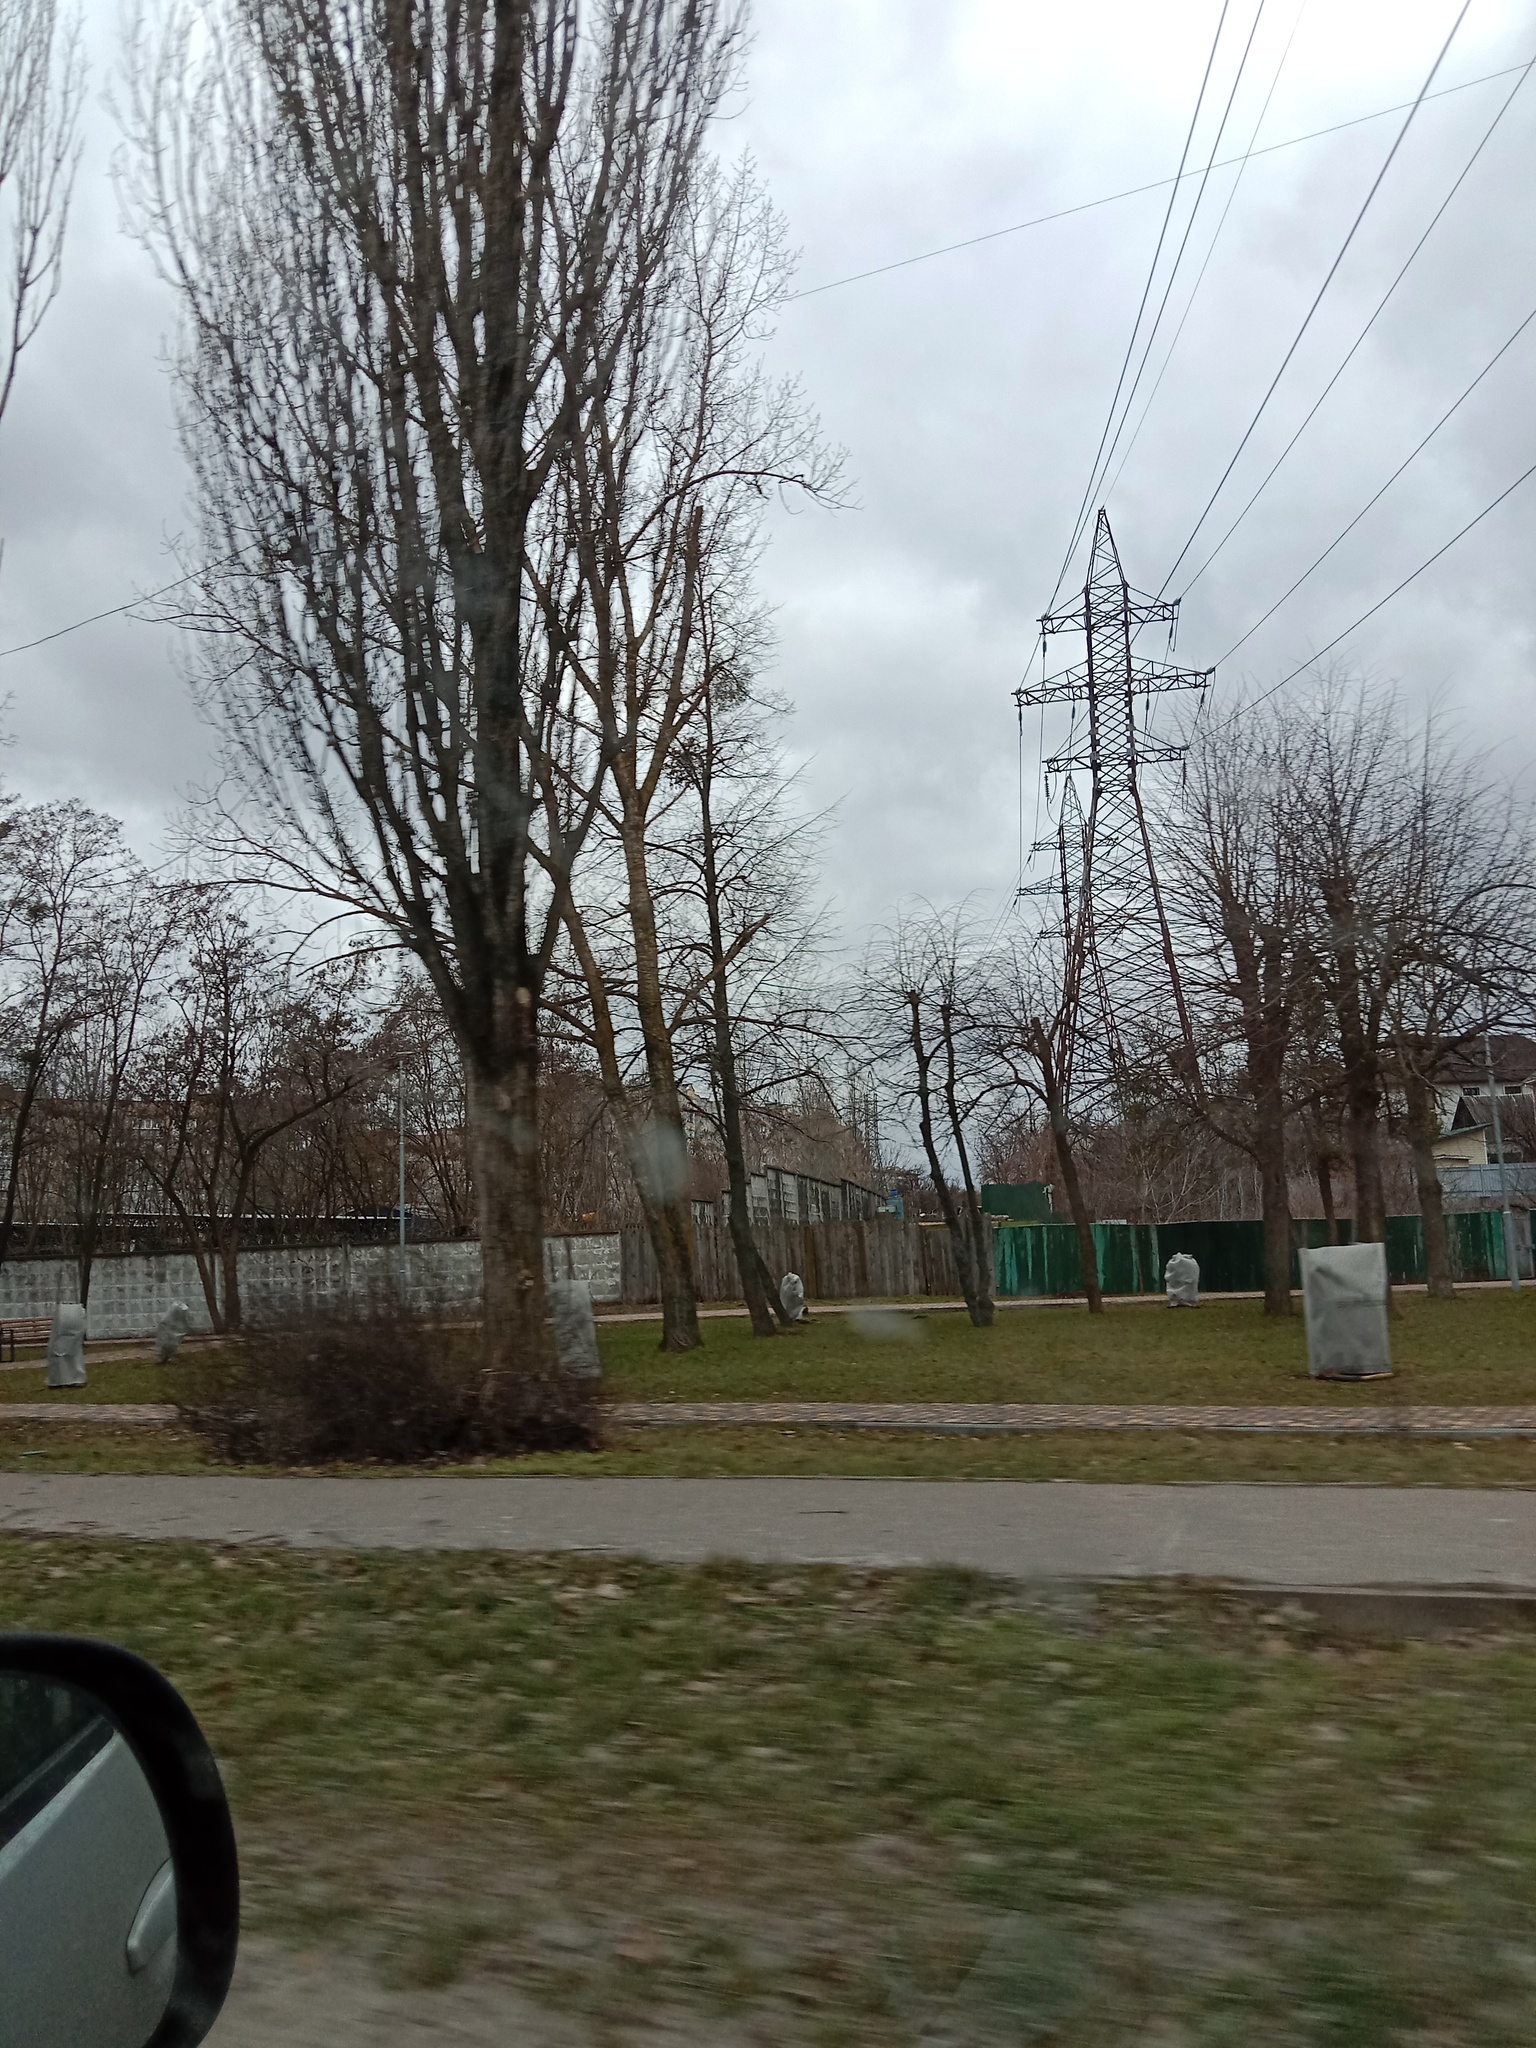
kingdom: Plantae
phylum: Tracheophyta
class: Magnoliopsida
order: Santalales
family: Viscaceae
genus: Viscum
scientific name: Viscum album
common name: Mistletoe
